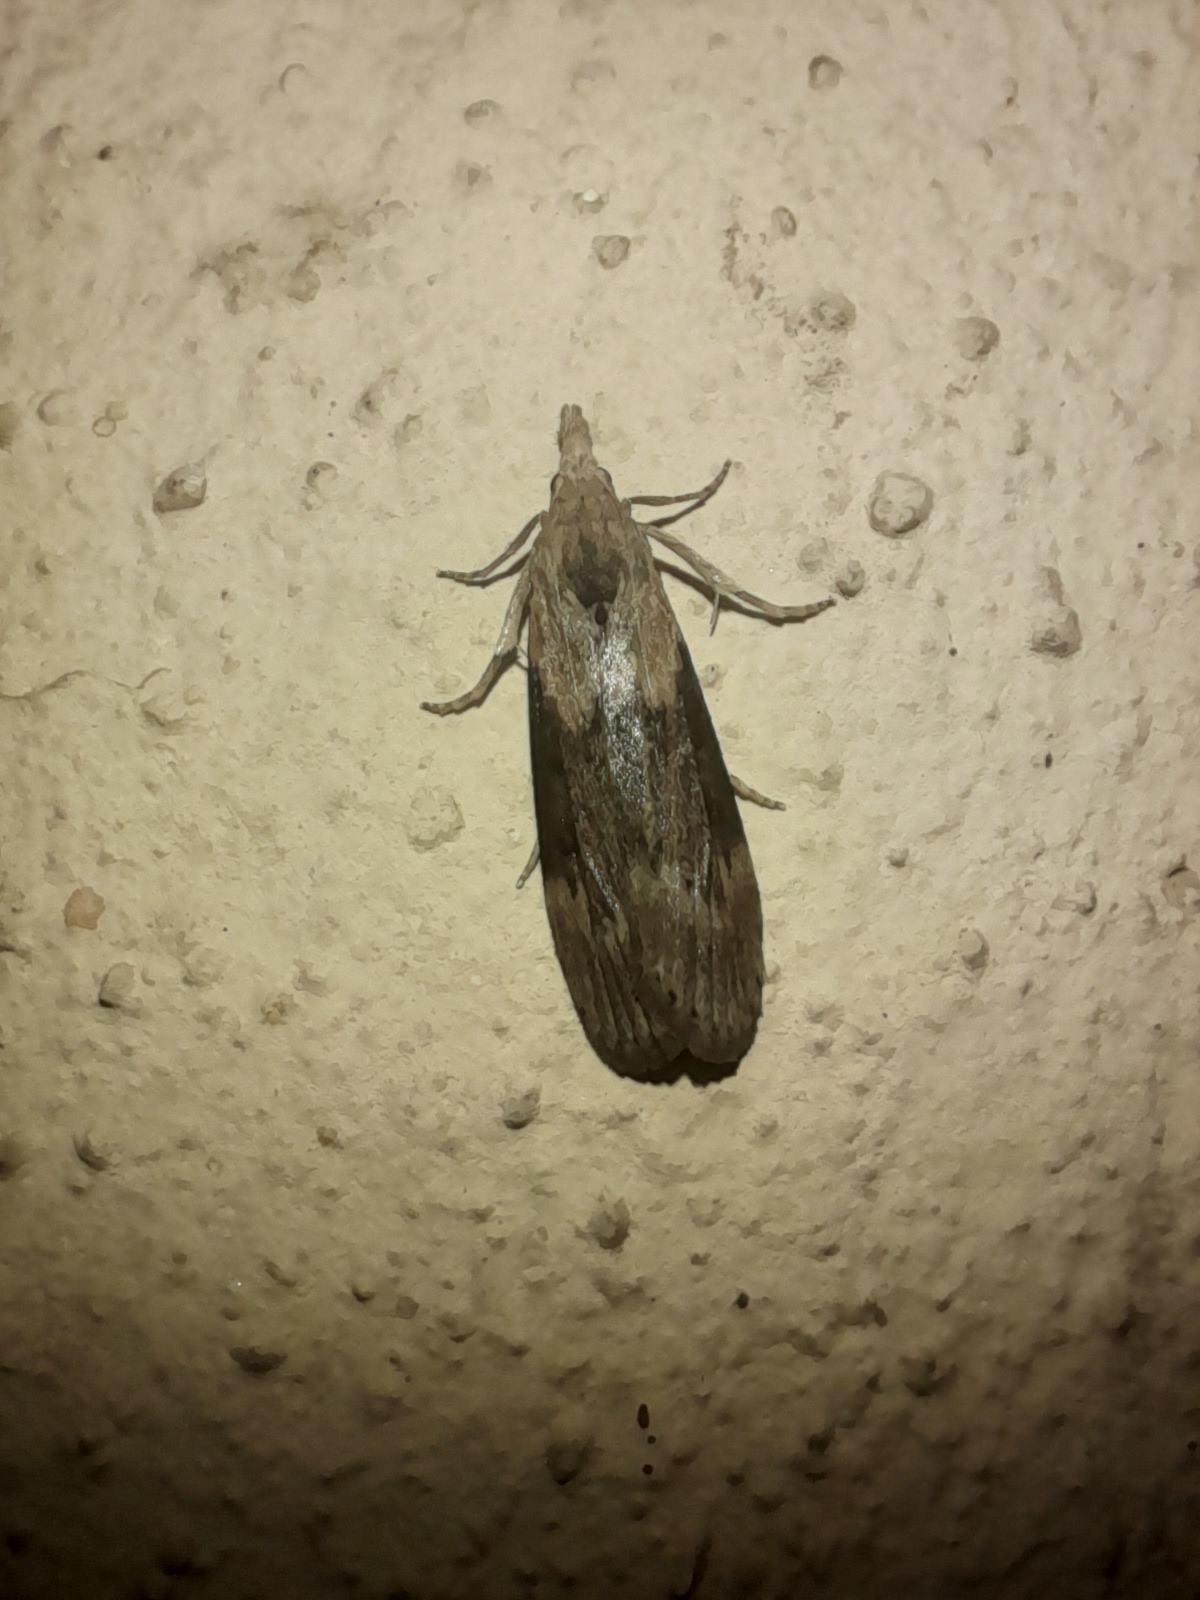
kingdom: Animalia
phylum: Arthropoda
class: Insecta
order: Lepidoptera
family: Pyralidae
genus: Lamoria
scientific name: Lamoria anella
